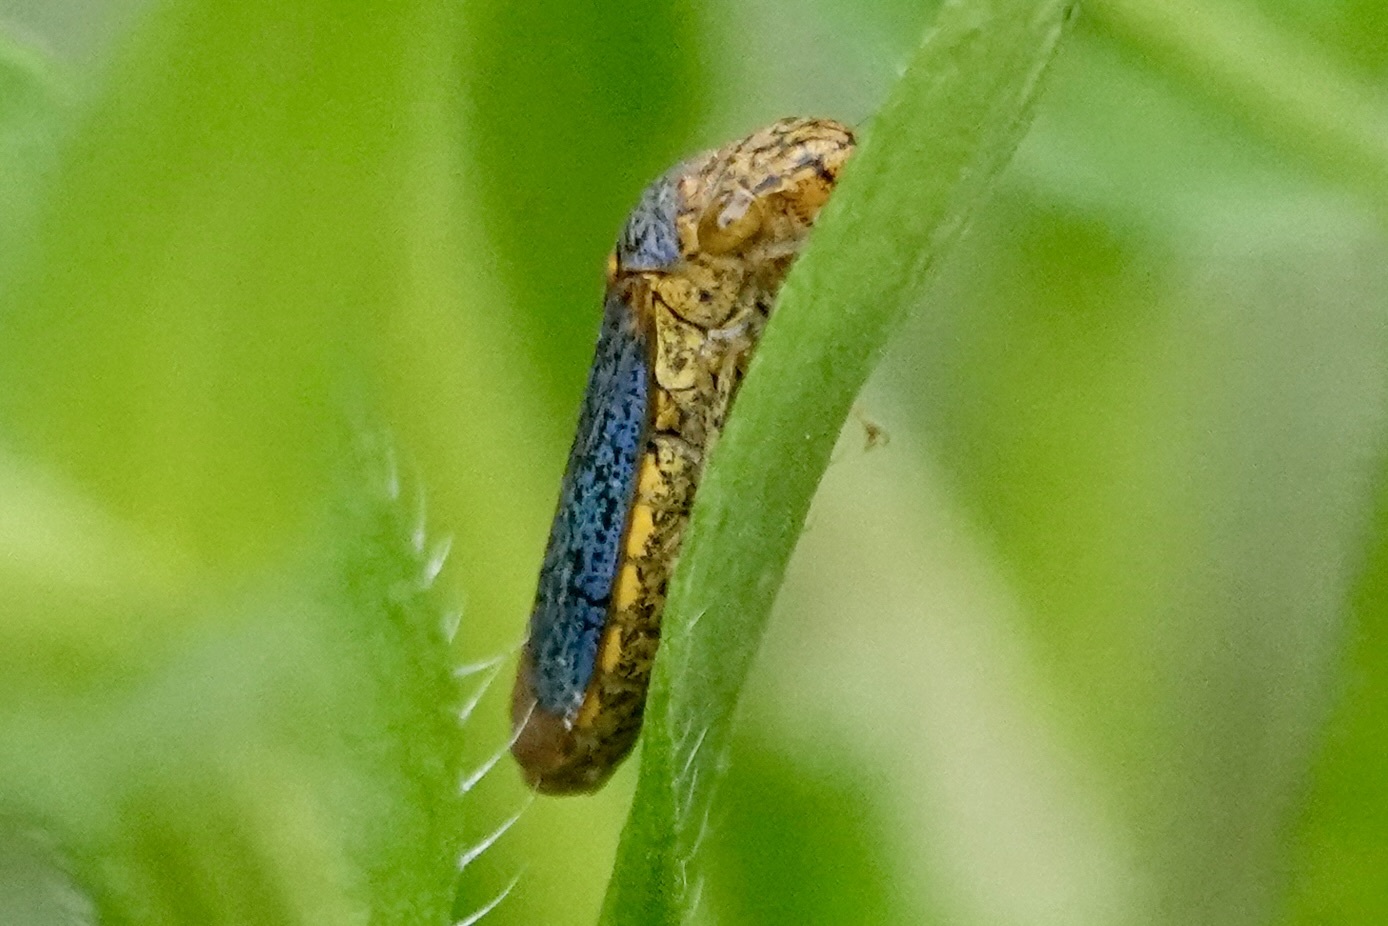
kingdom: Animalia
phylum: Arthropoda
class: Insecta
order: Hemiptera
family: Cicadellidae
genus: Oncometopia
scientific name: Oncometopia orbona
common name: Broad-headed sharpshooter
